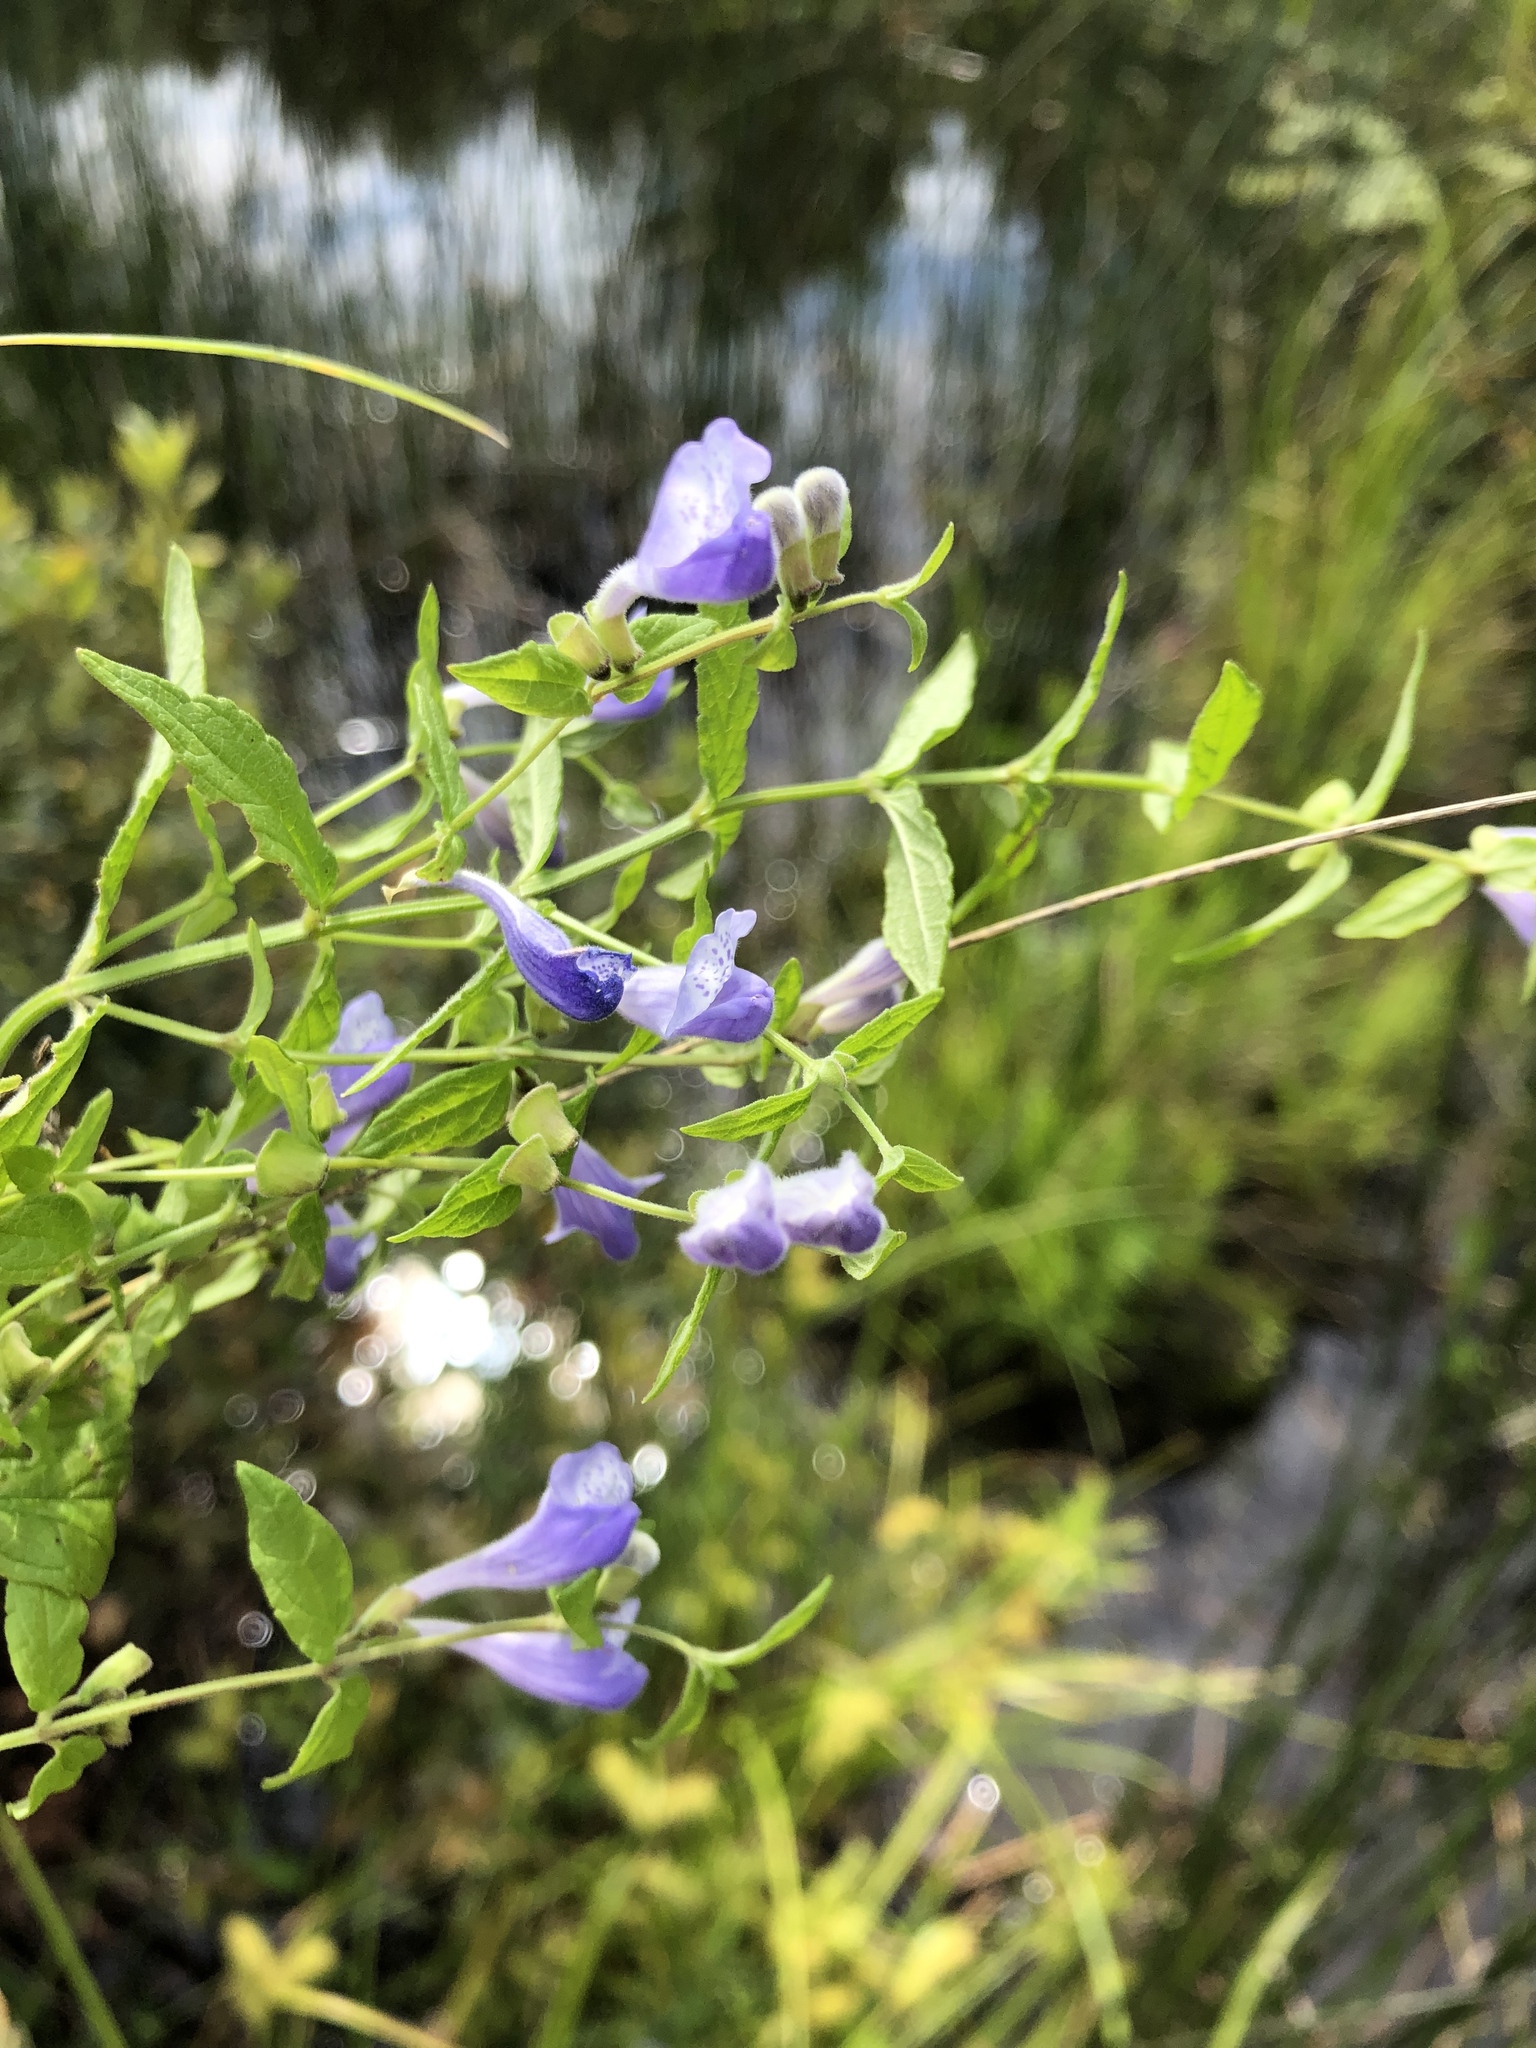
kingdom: Plantae
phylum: Tracheophyta
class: Magnoliopsida
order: Lamiales
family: Lamiaceae
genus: Scutellaria
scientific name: Scutellaria galericulata
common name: Skullcap
